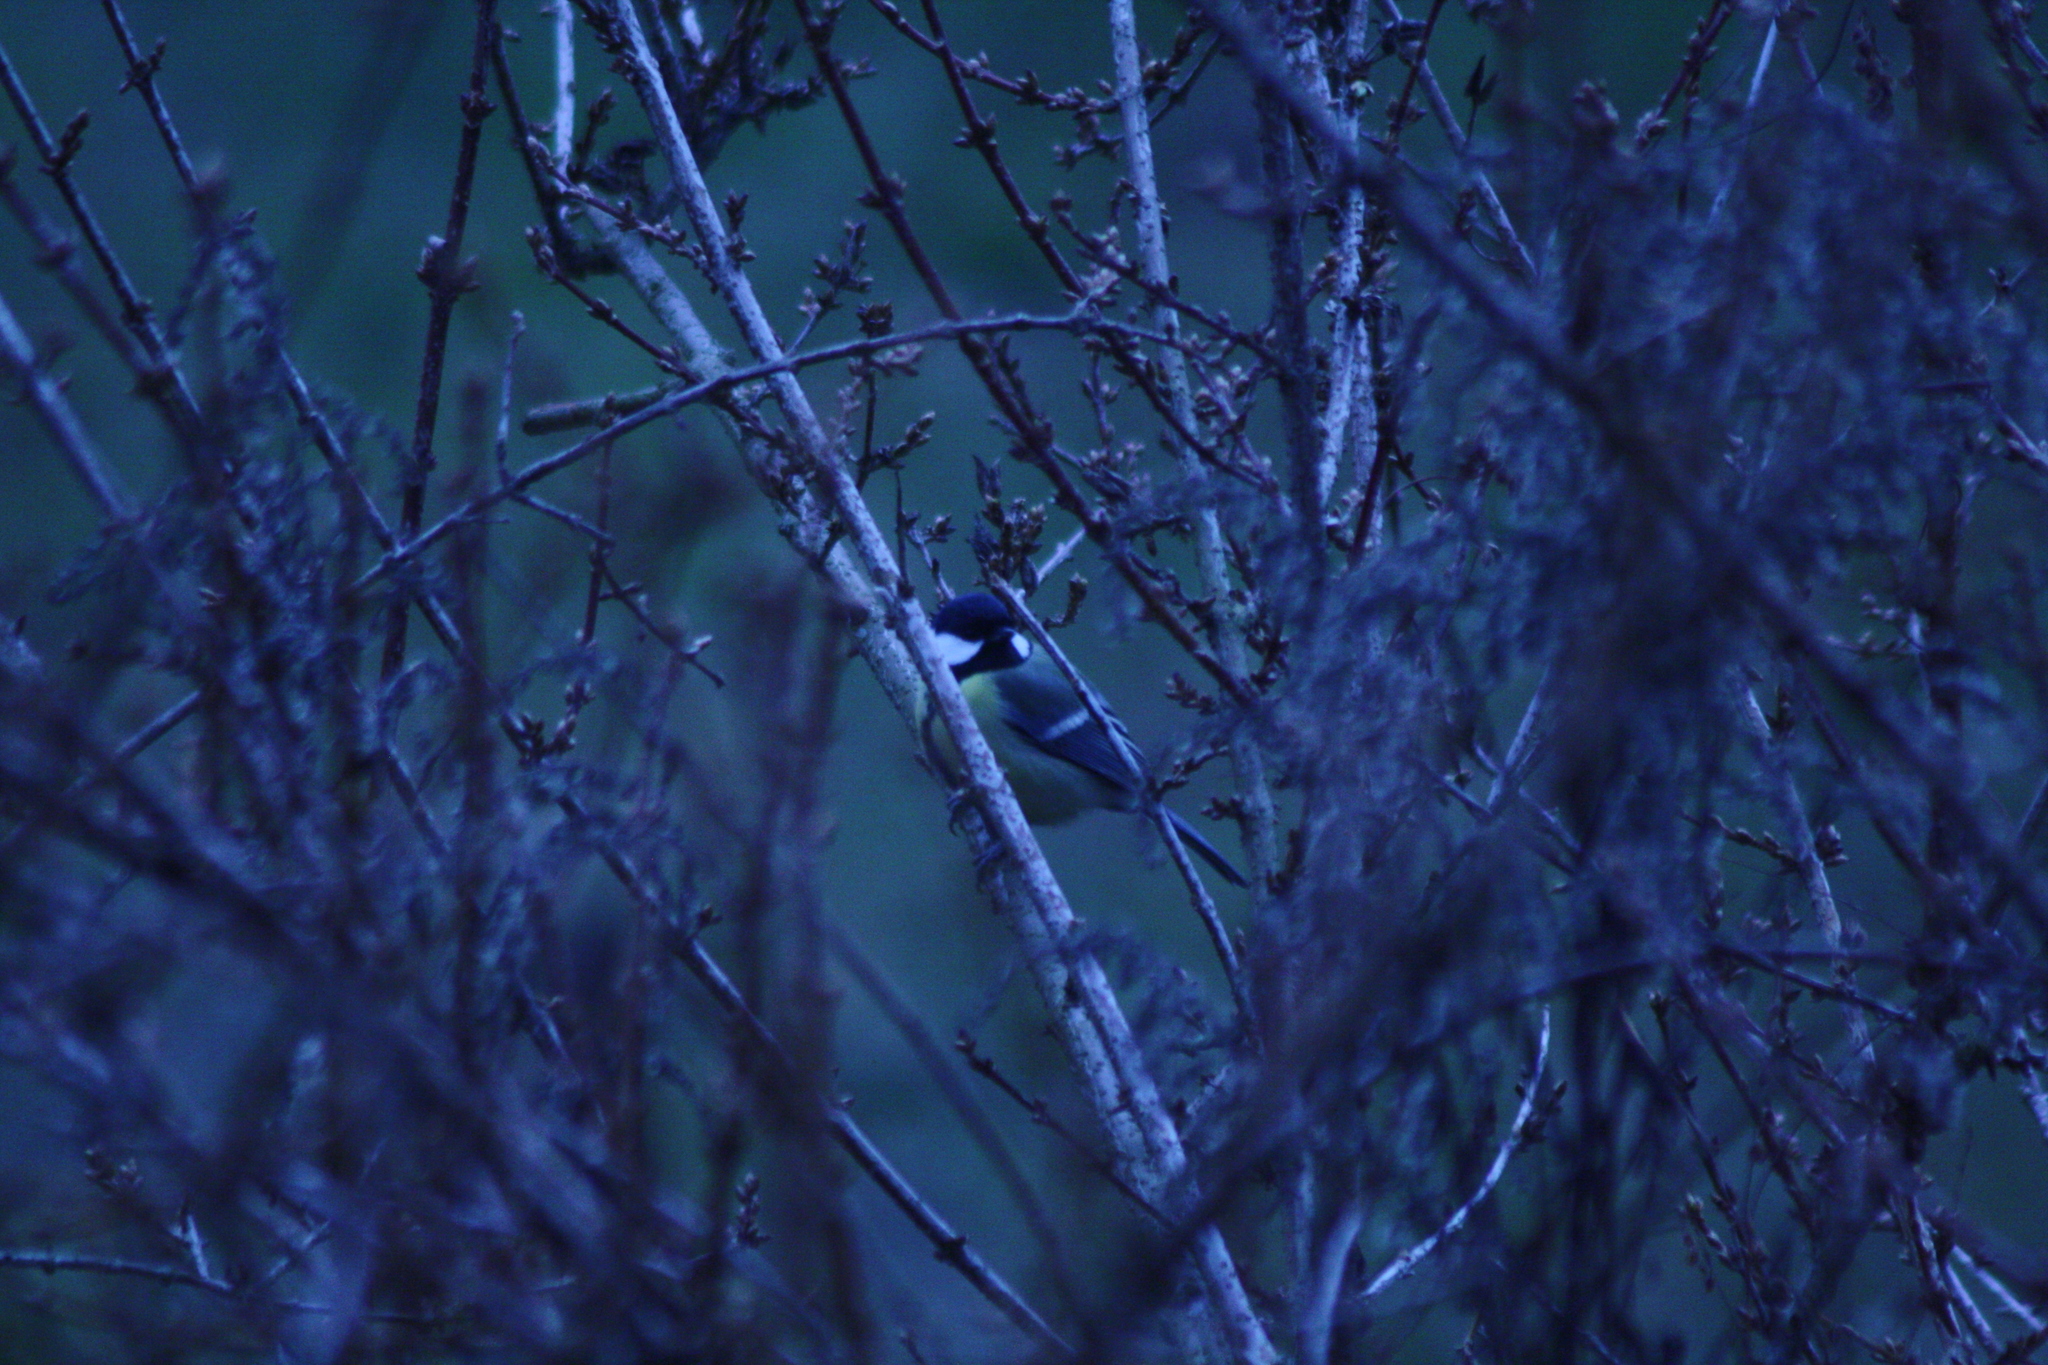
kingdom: Animalia
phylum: Chordata
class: Aves
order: Passeriformes
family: Paridae
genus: Parus
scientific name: Parus major
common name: Great tit
